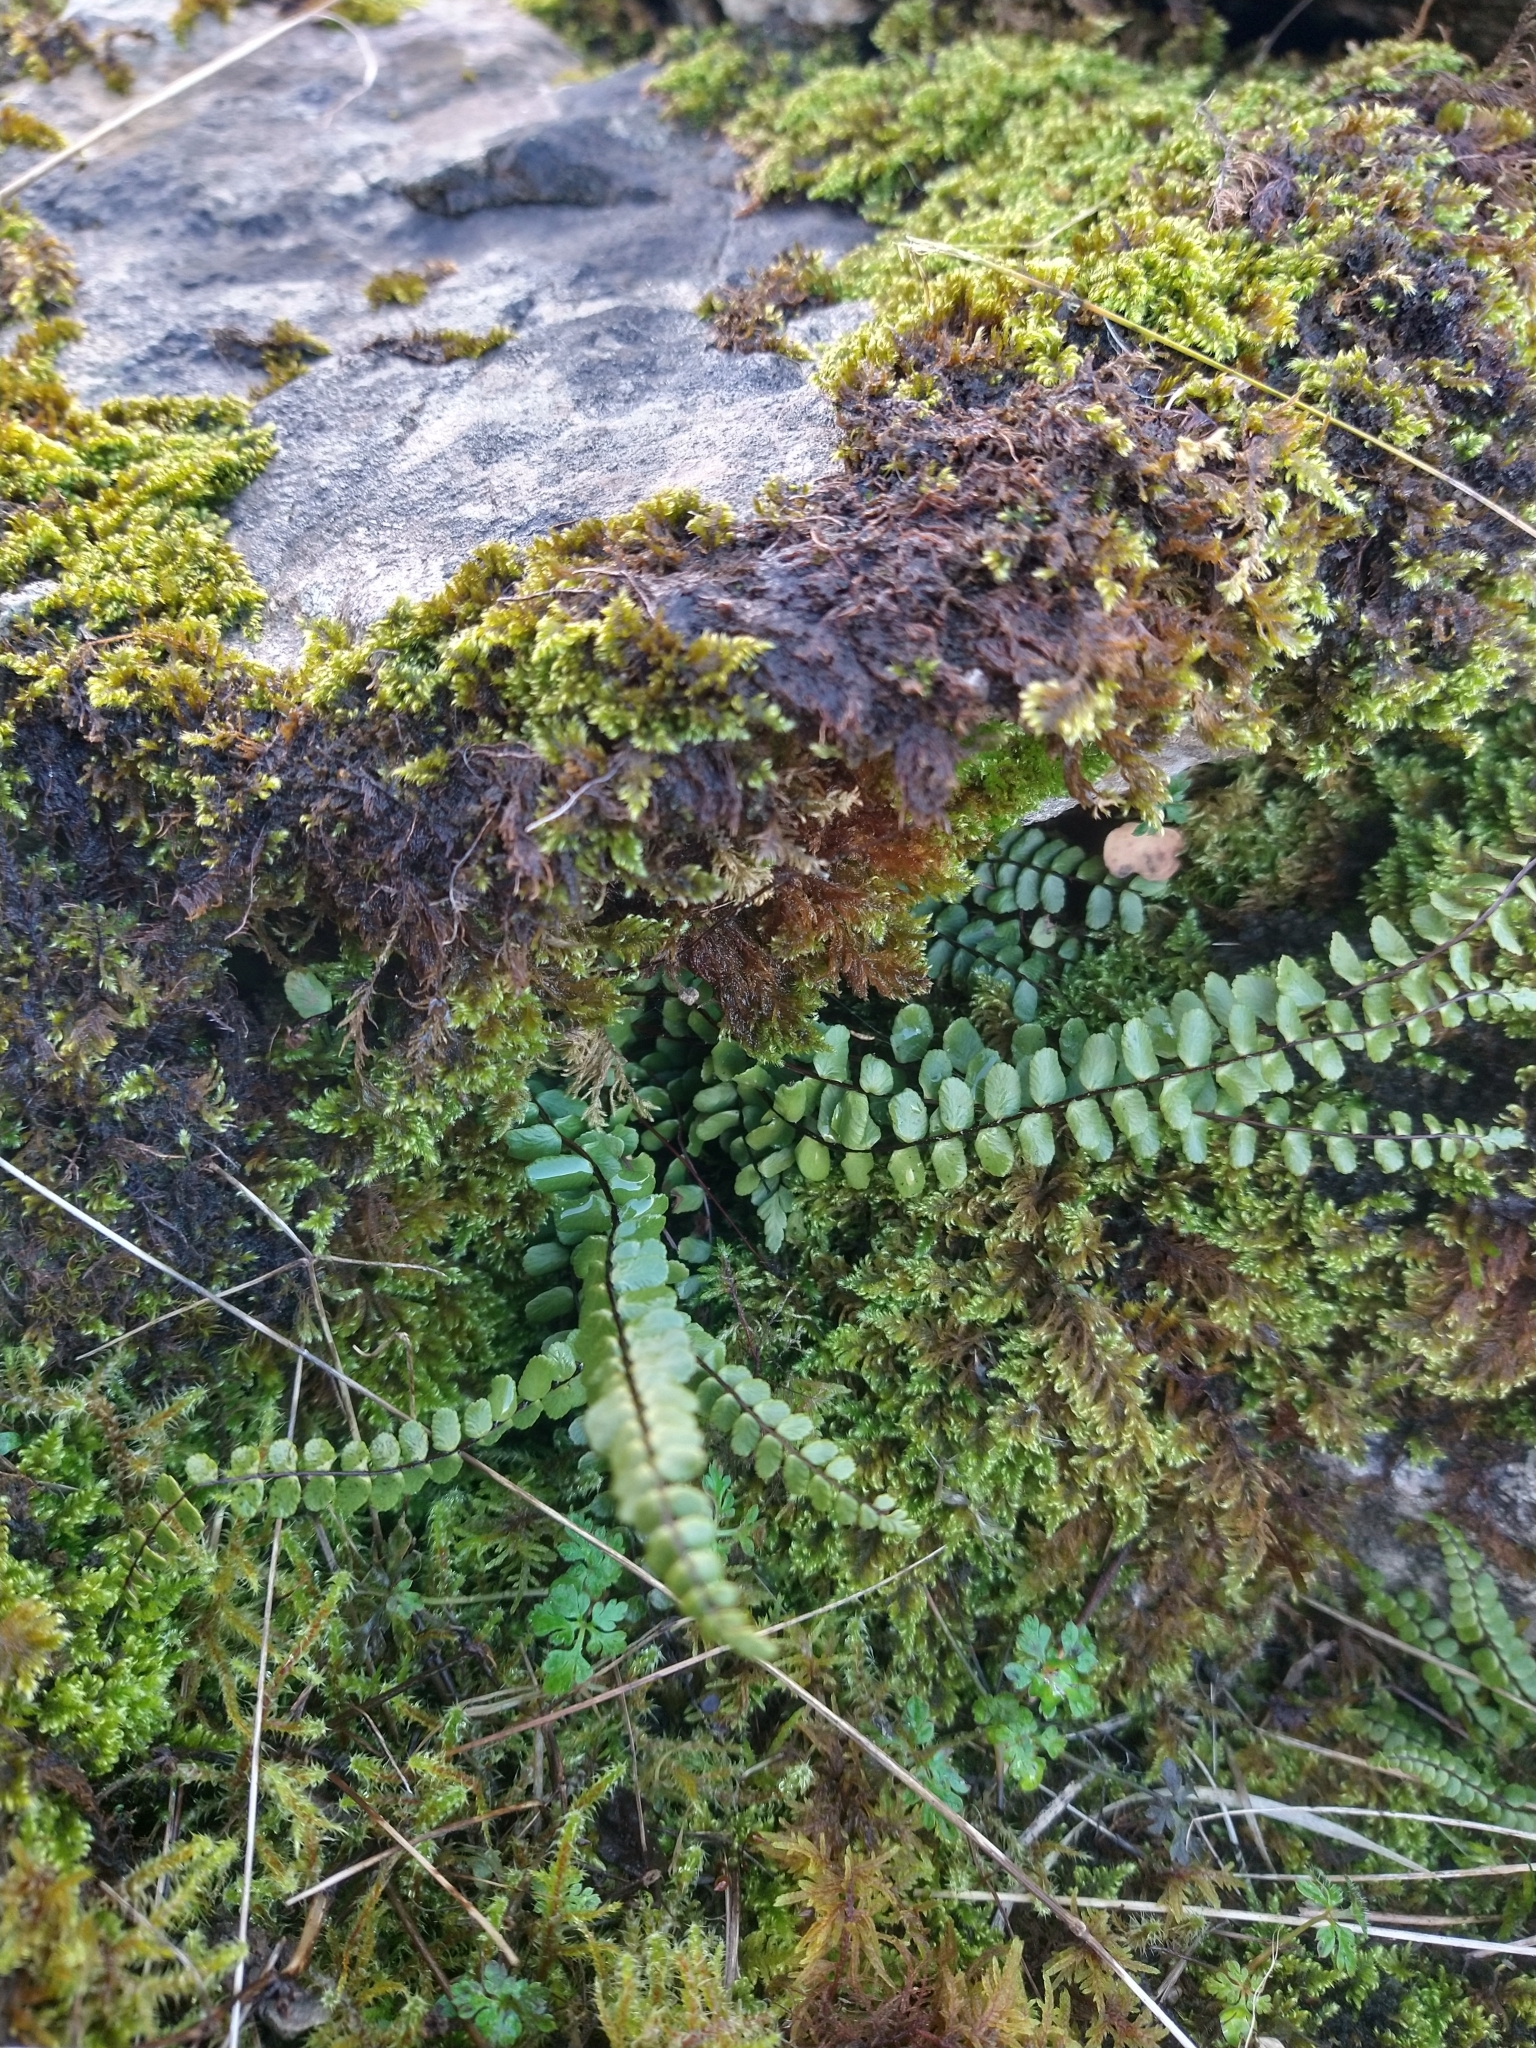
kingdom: Plantae
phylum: Tracheophyta
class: Polypodiopsida
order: Polypodiales
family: Aspleniaceae
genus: Asplenium
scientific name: Asplenium trichomanes
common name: Maidenhair spleenwort
